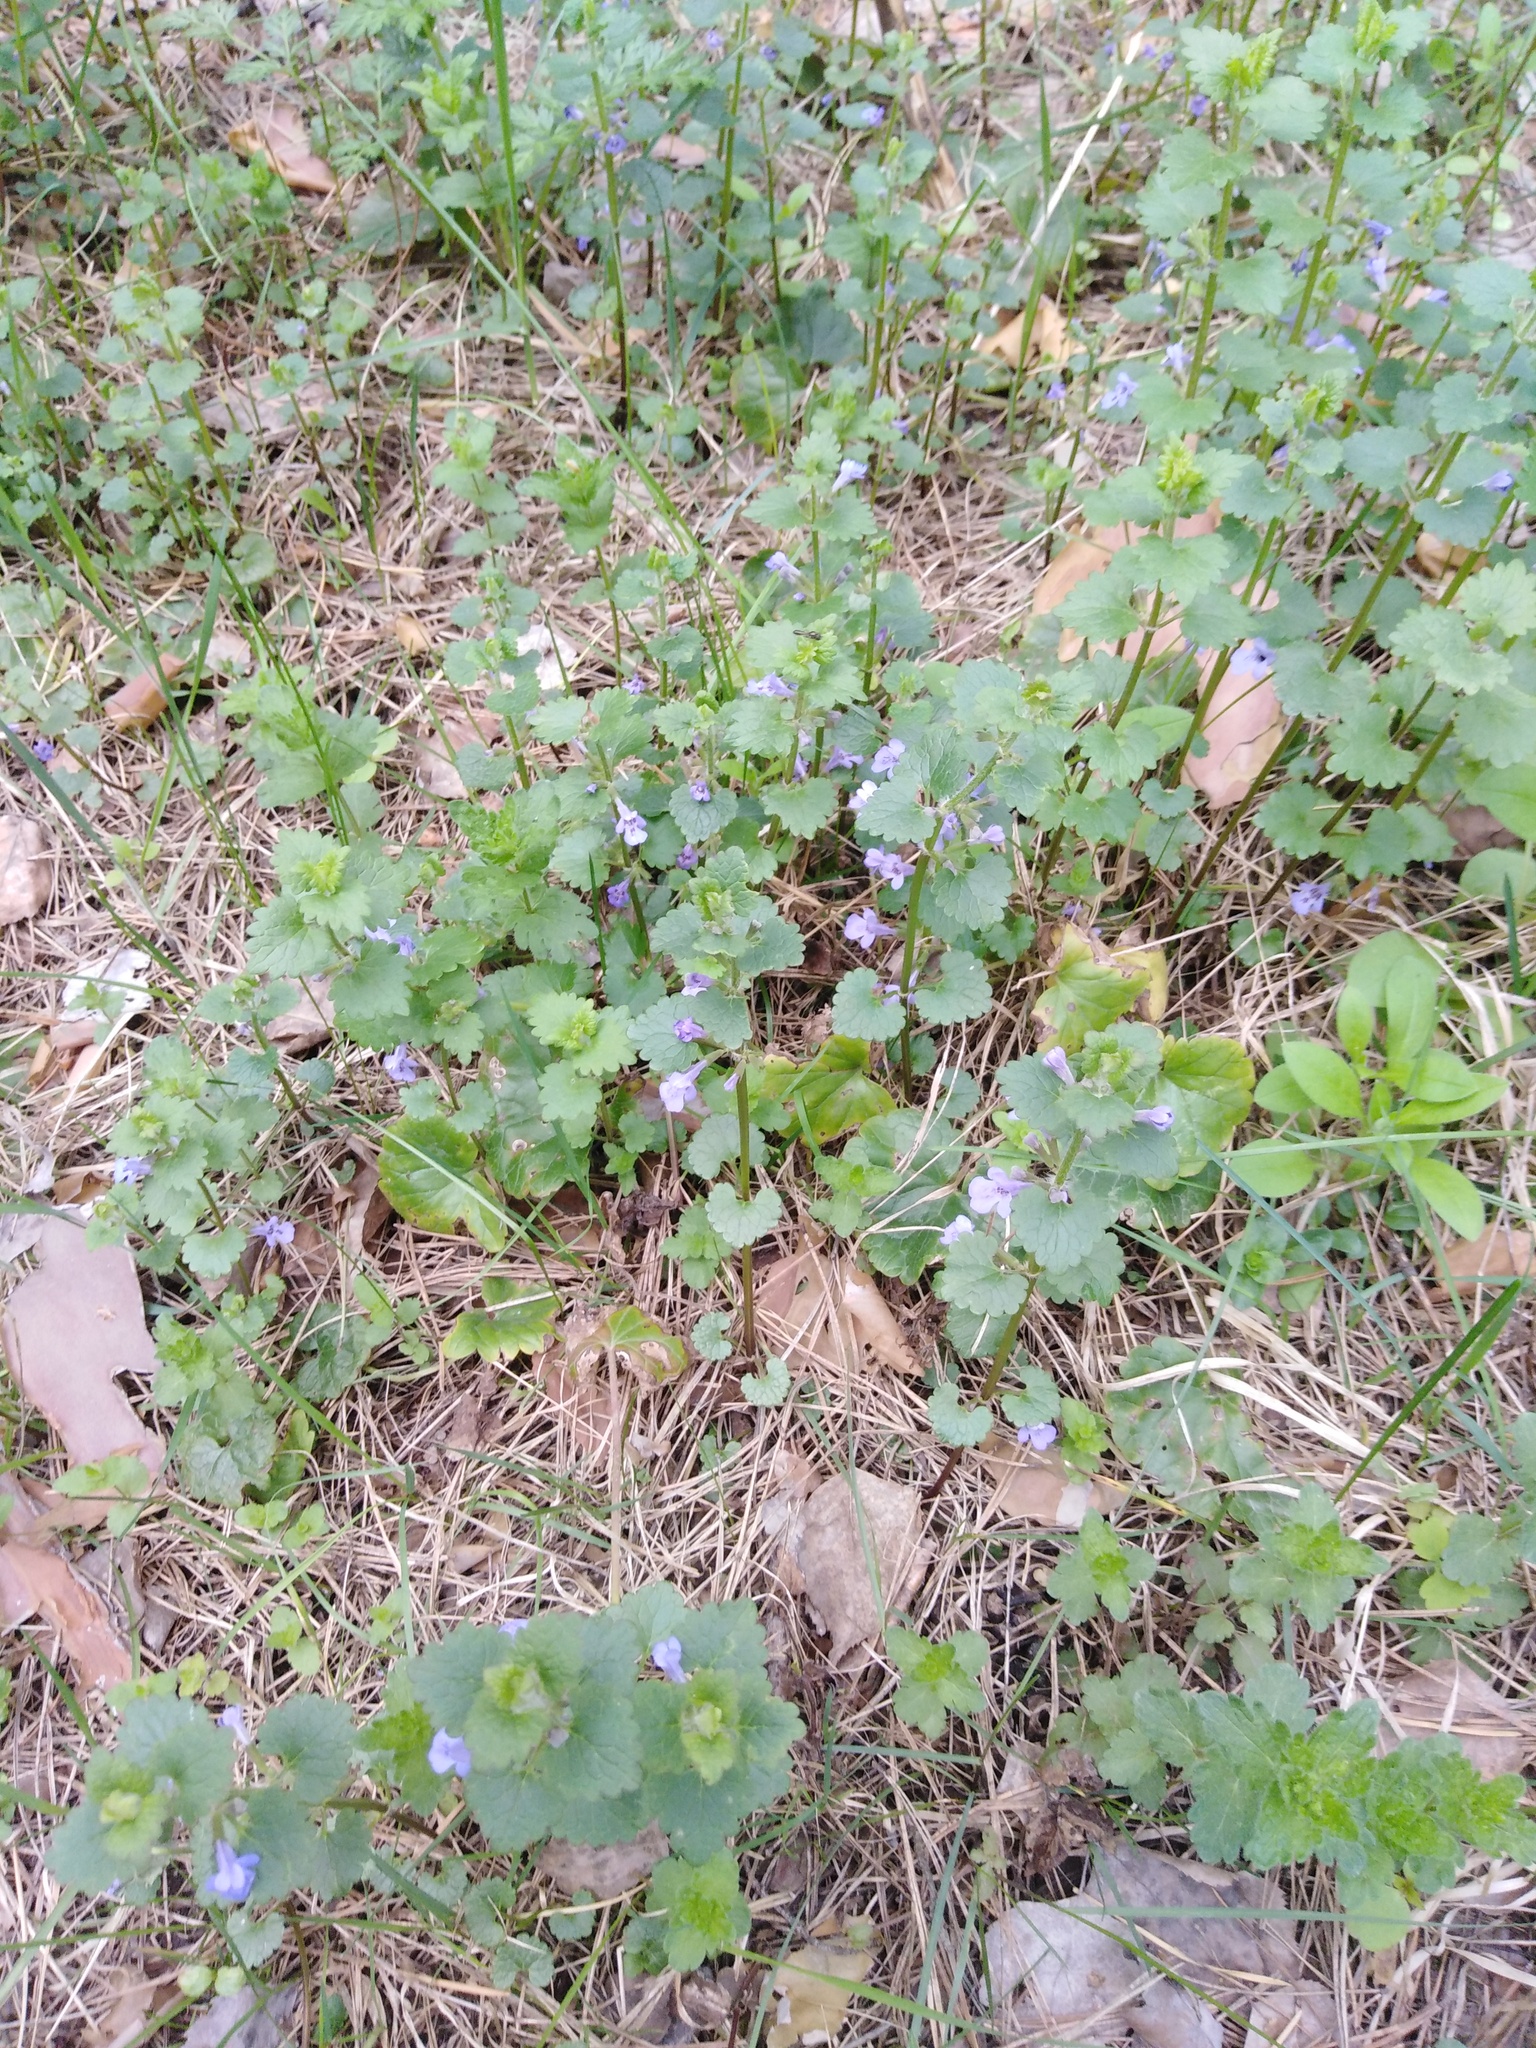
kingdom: Plantae
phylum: Tracheophyta
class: Magnoliopsida
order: Lamiales
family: Lamiaceae
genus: Glechoma
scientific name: Glechoma hederacea
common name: Ground ivy
